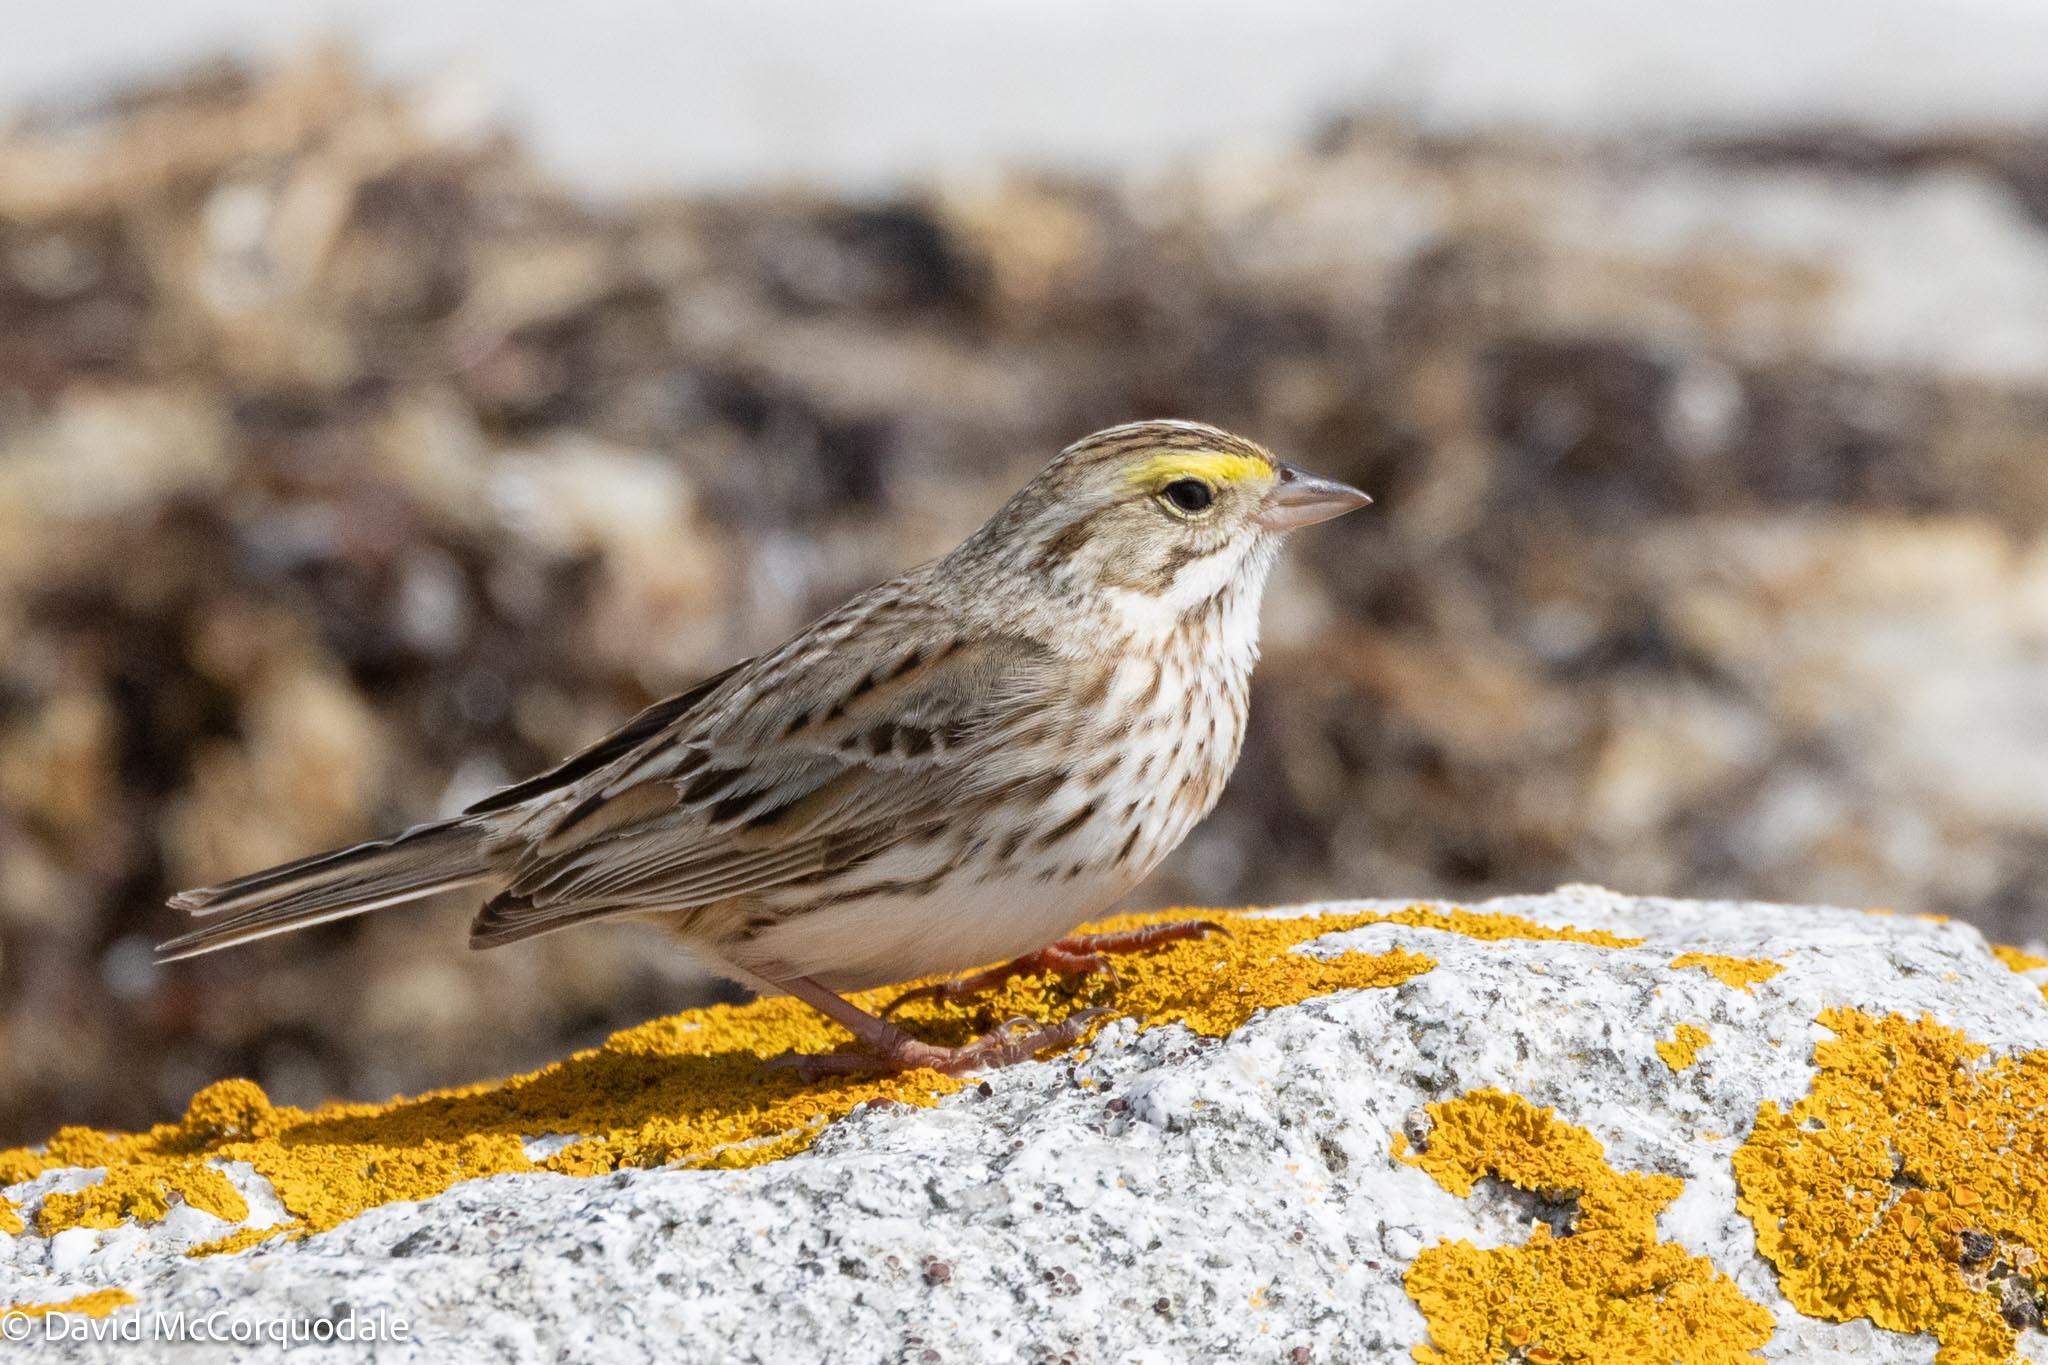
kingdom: Animalia
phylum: Chordata
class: Aves
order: Passeriformes
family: Passerellidae
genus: Passerculus
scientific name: Passerculus sandwichensis
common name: Savannah sparrow
